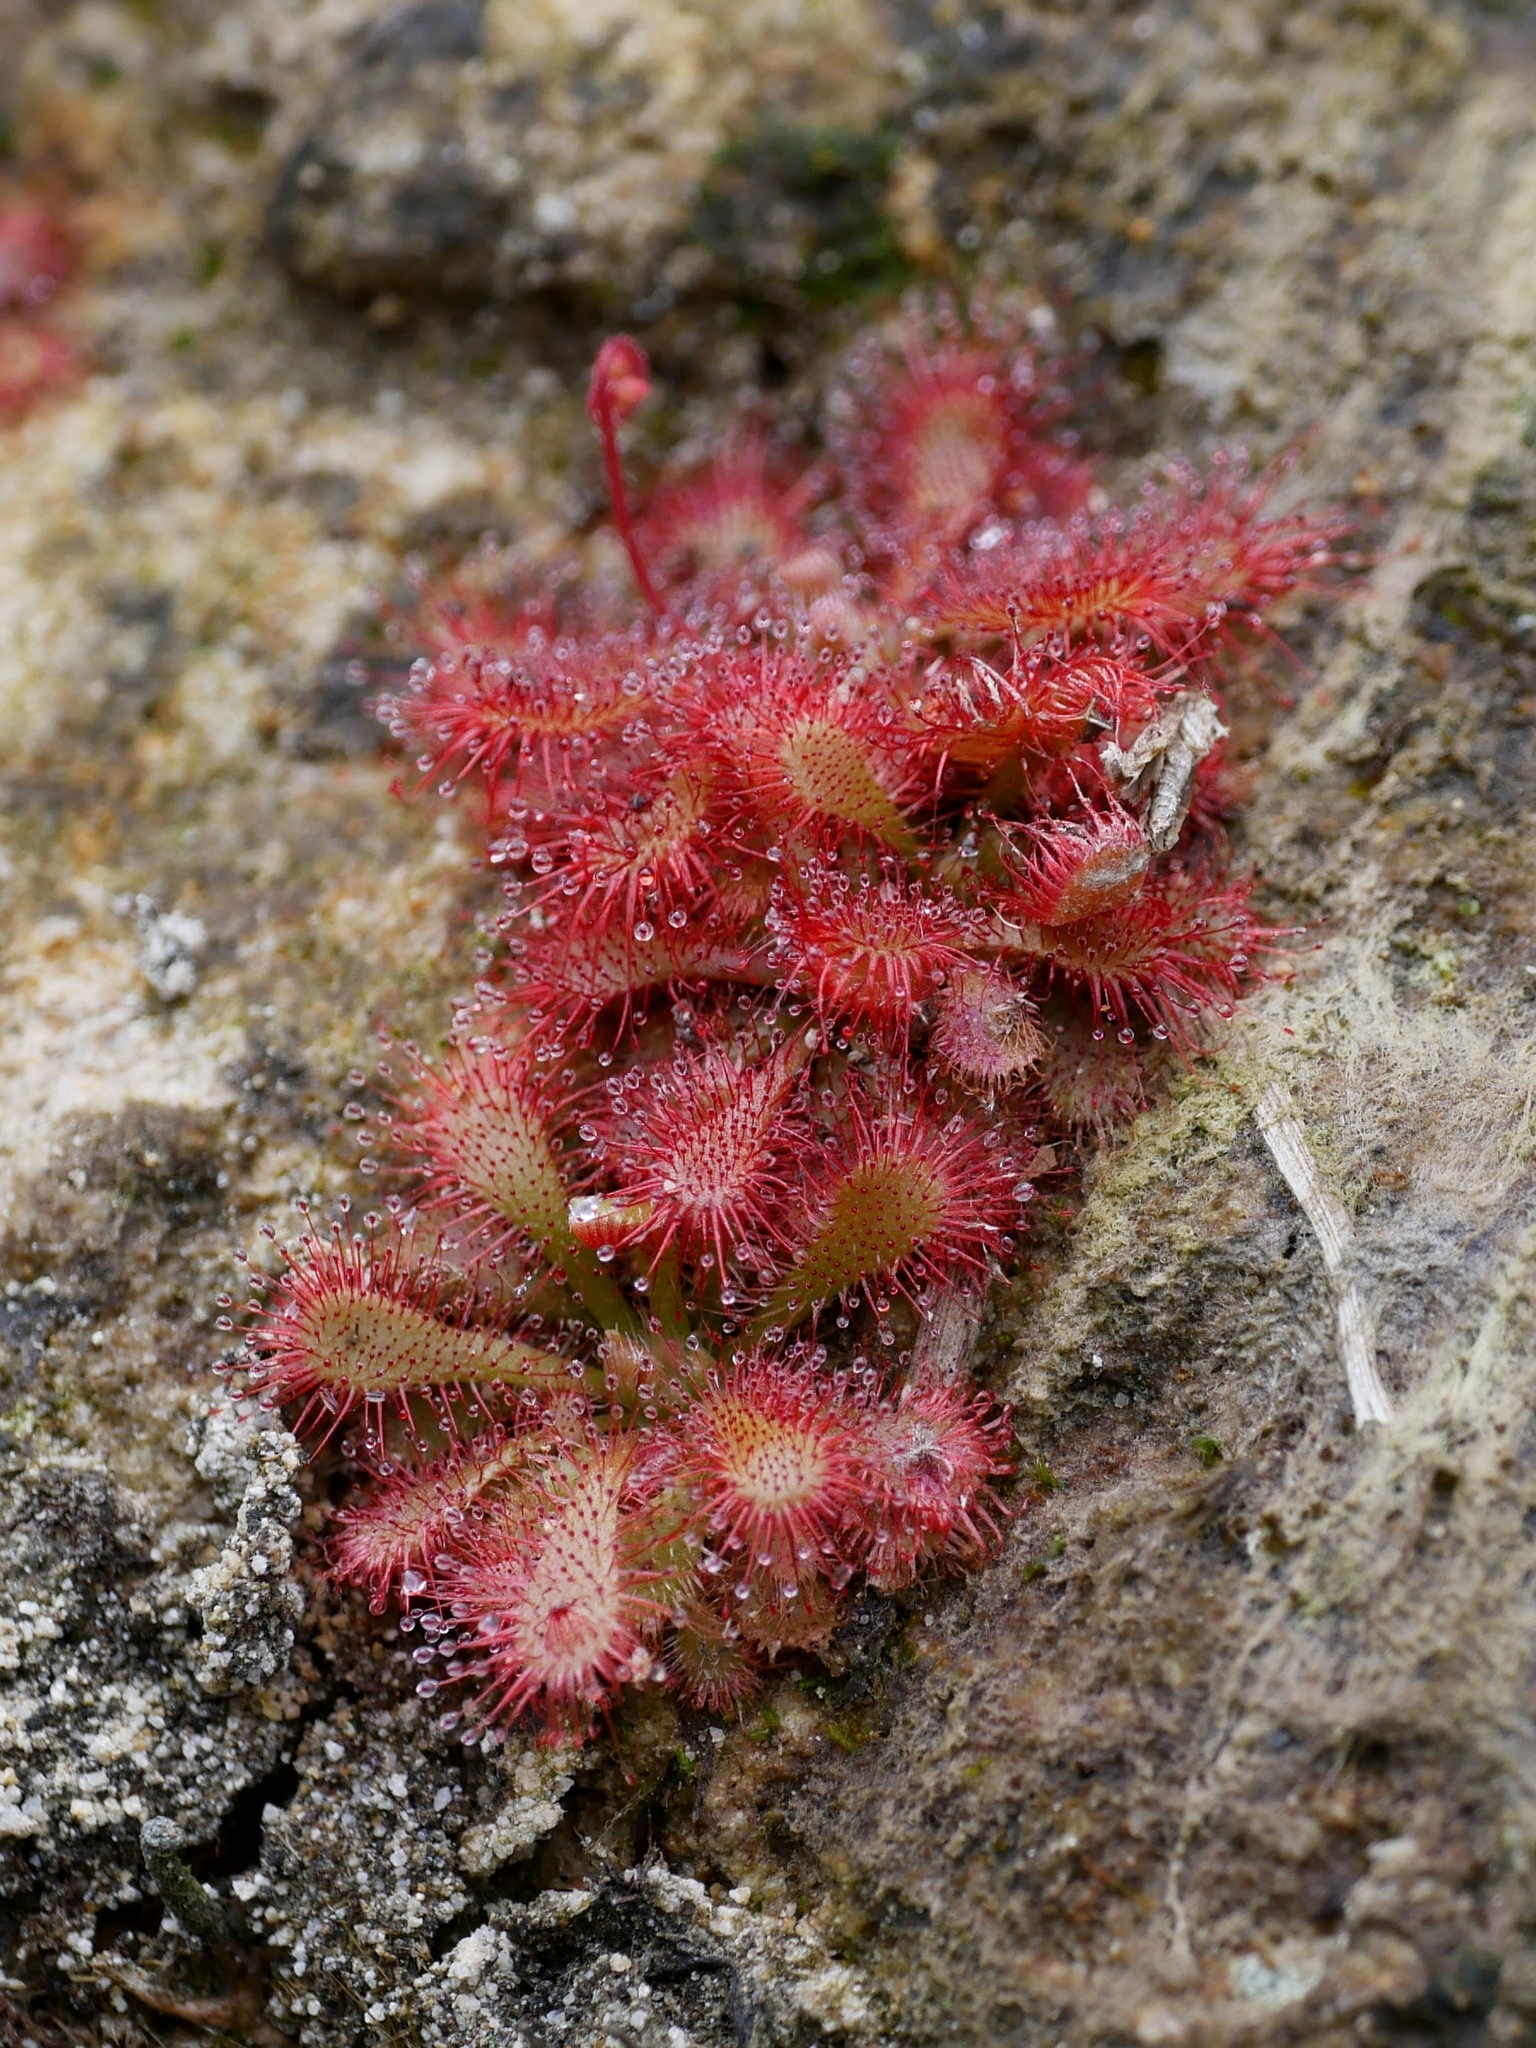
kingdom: Plantae
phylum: Tracheophyta
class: Magnoliopsida
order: Caryophyllales
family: Droseraceae
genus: Drosera
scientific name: Drosera spatulata
